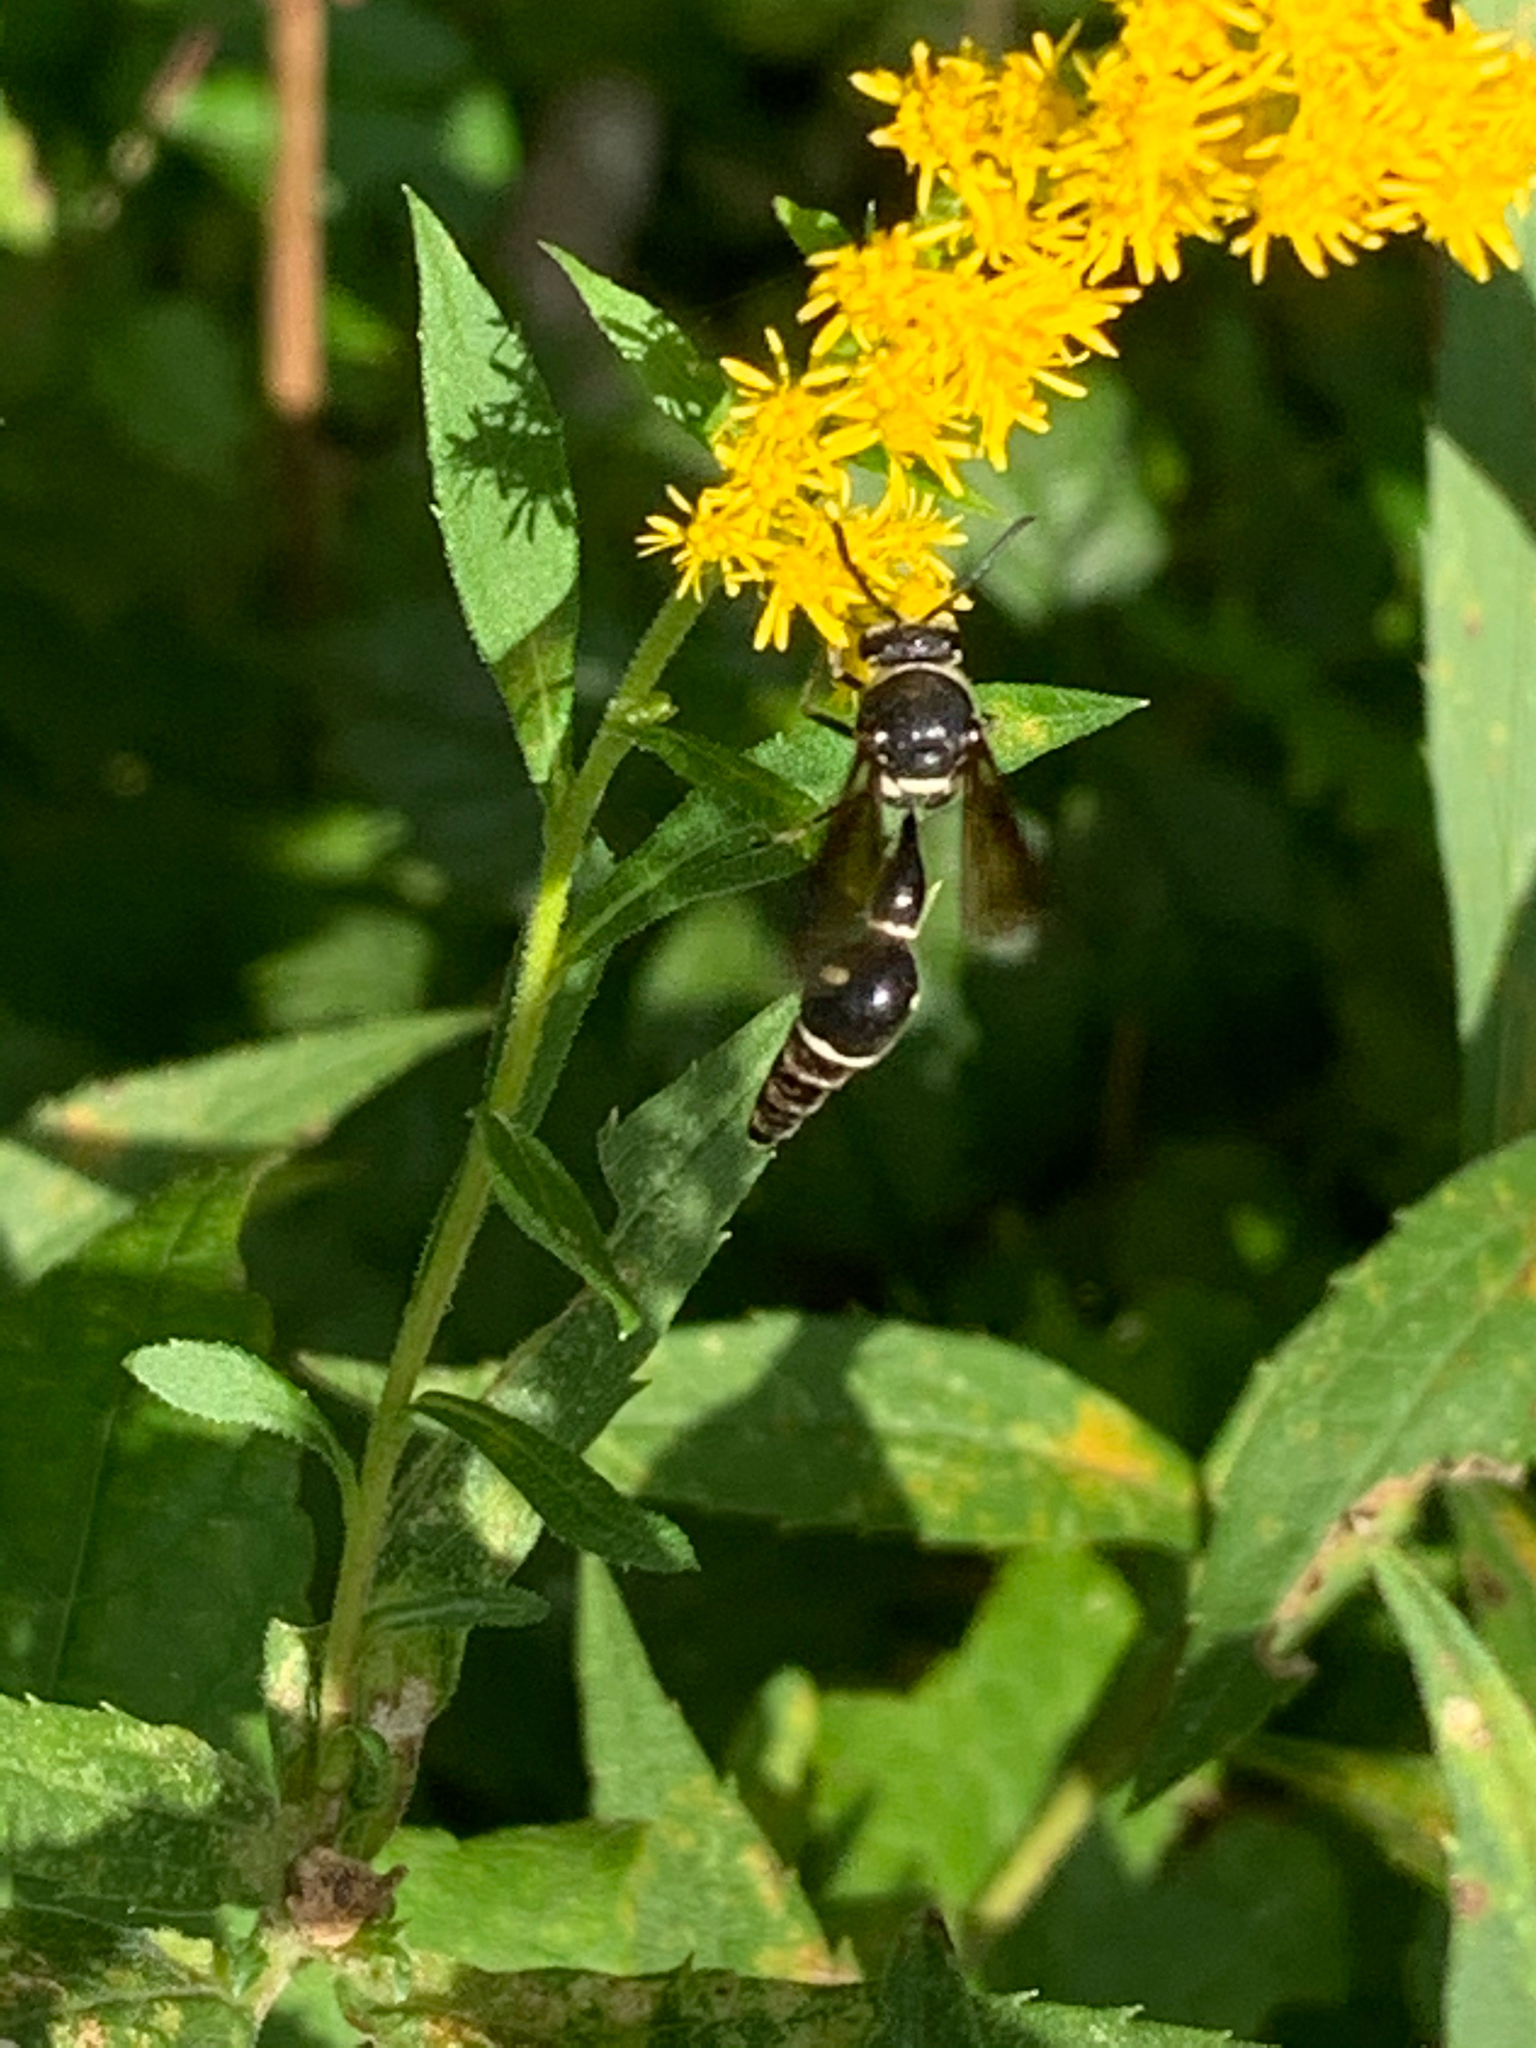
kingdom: Animalia
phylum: Arthropoda
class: Insecta
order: Hymenoptera
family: Vespidae
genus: Eumenes
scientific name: Eumenes fraternus
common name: Fraternal potter wasp
